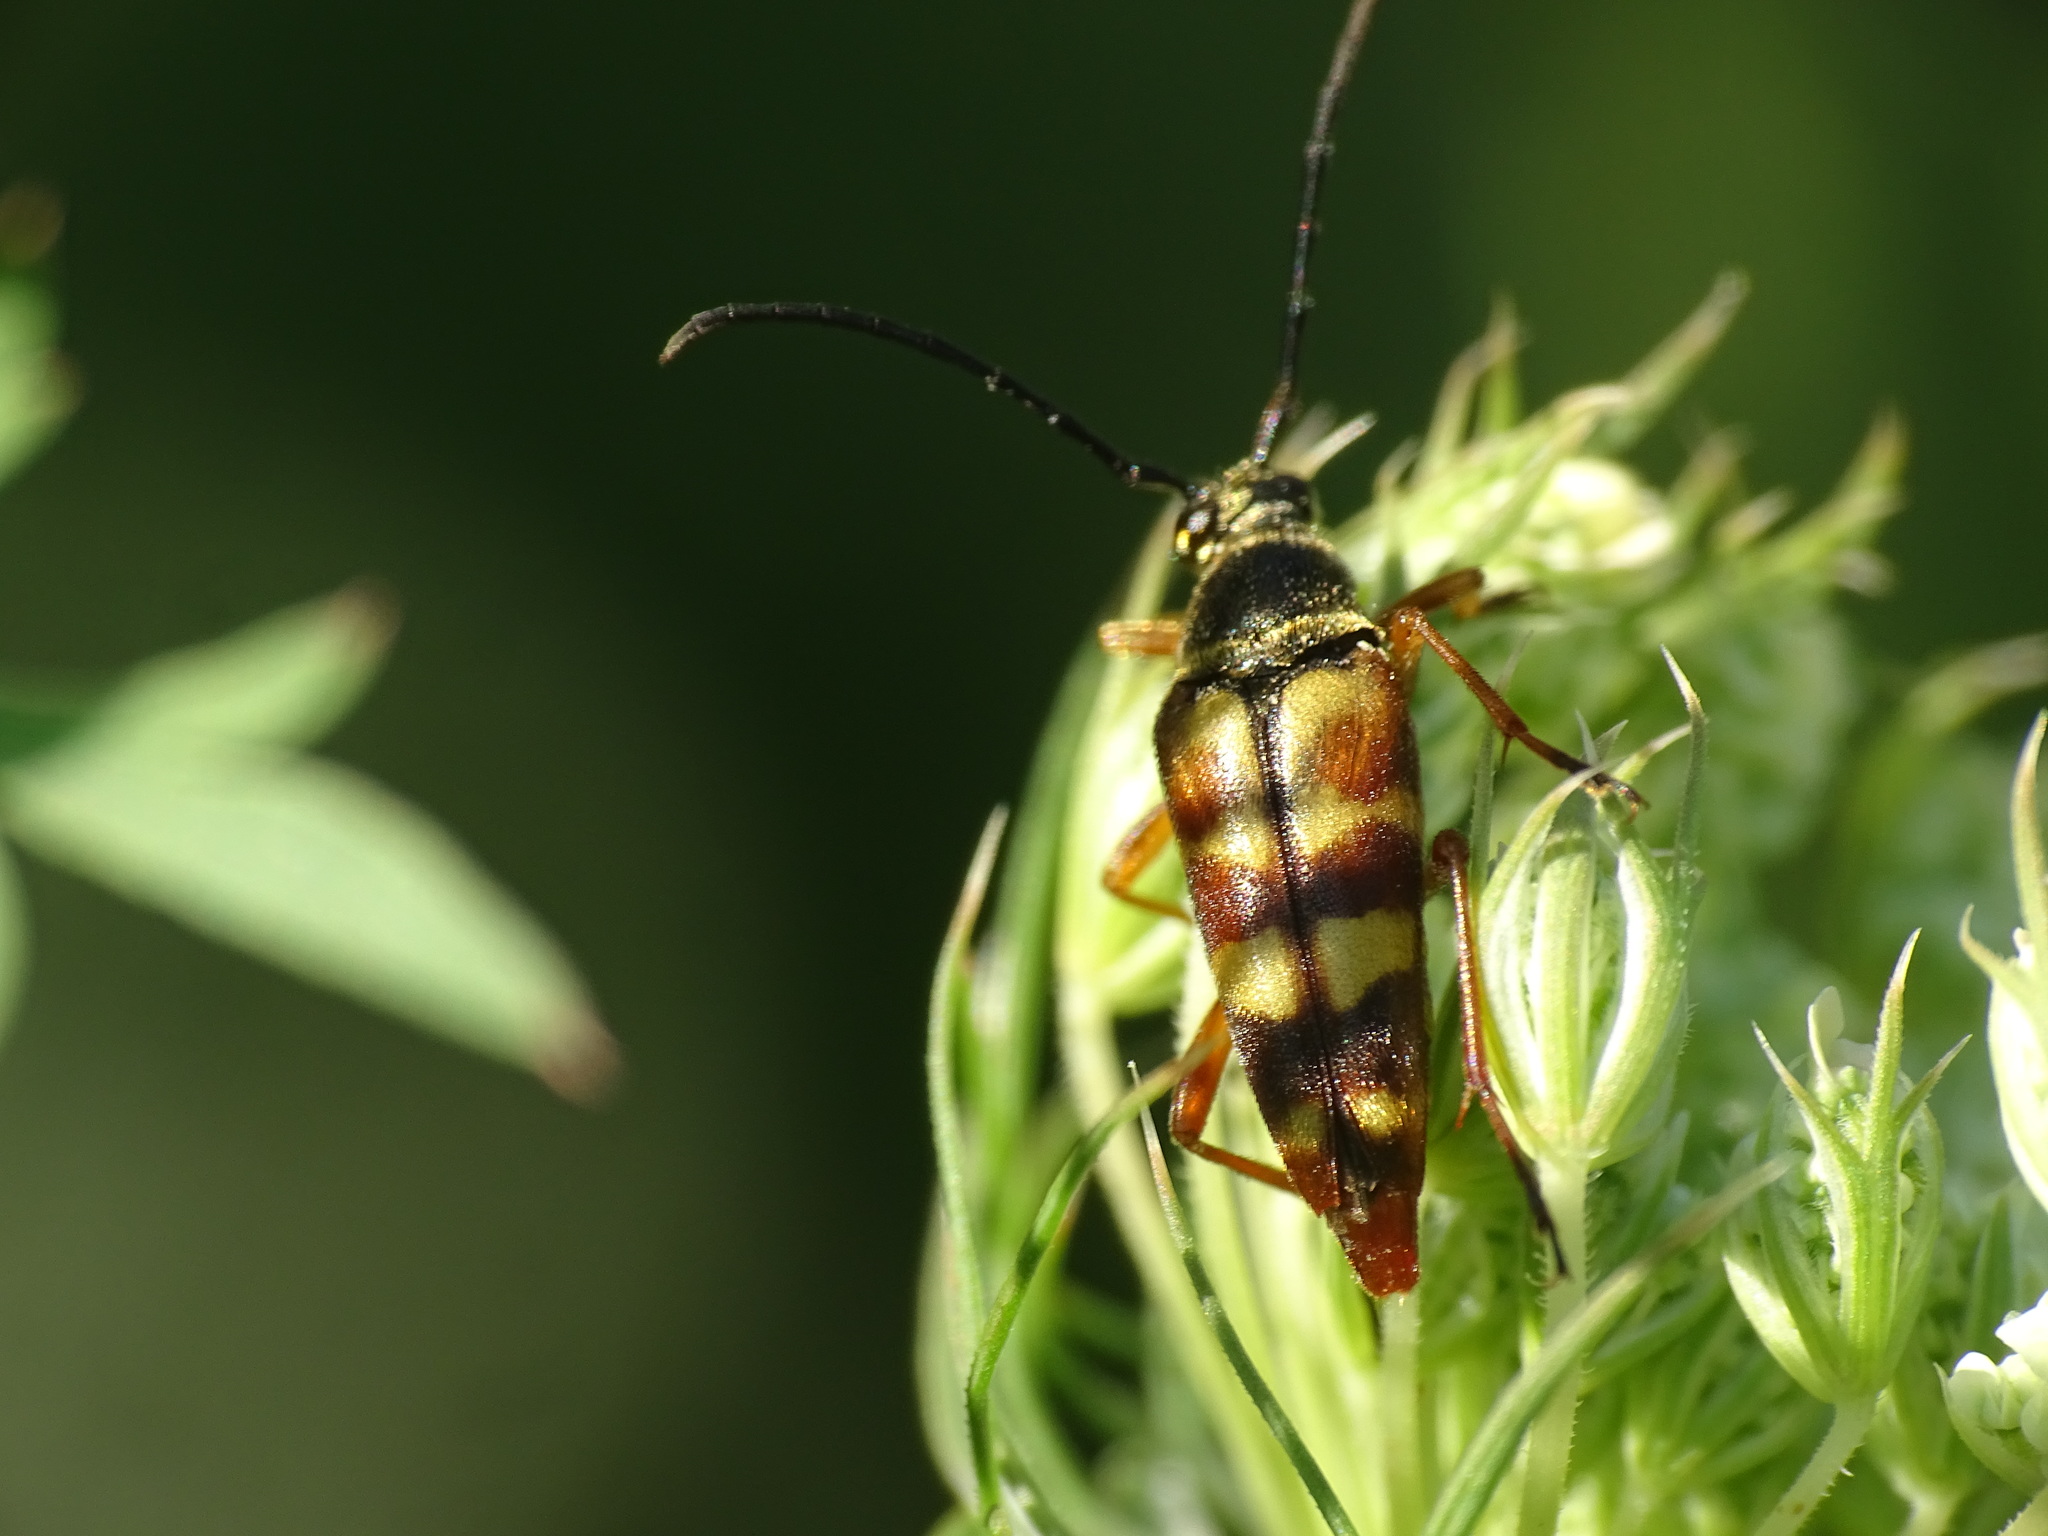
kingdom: Animalia
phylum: Arthropoda
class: Insecta
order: Coleoptera
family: Cerambycidae
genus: Typocerus
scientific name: Typocerus velutinus
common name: Banded longhorn beetle
